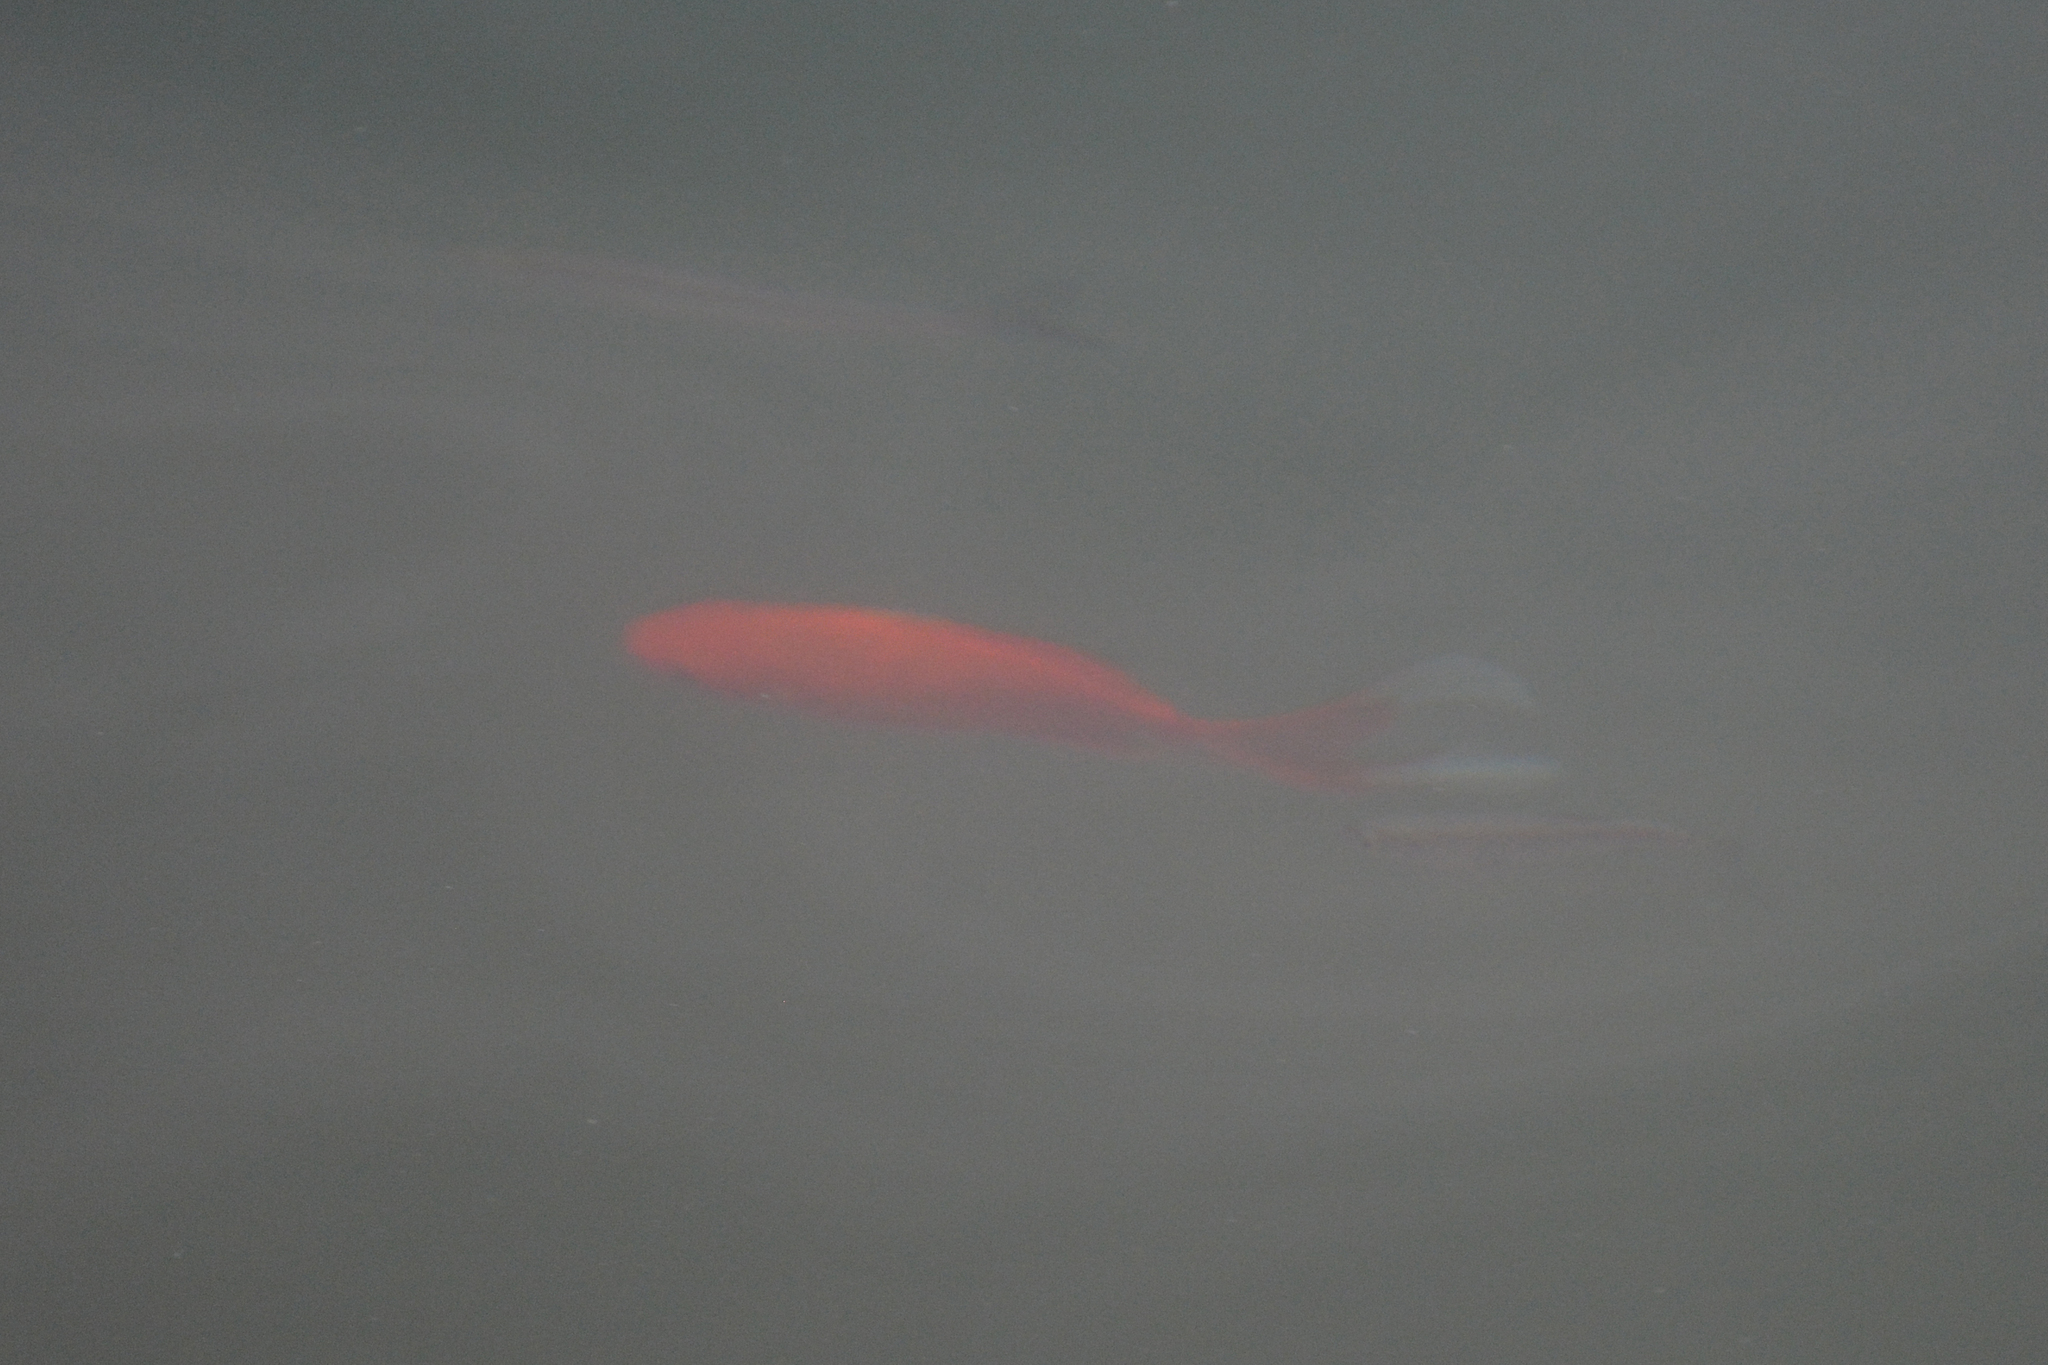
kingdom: Animalia
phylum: Chordata
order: Cypriniformes
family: Cyprinidae
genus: Carassius
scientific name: Carassius auratus
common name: Goldfish
